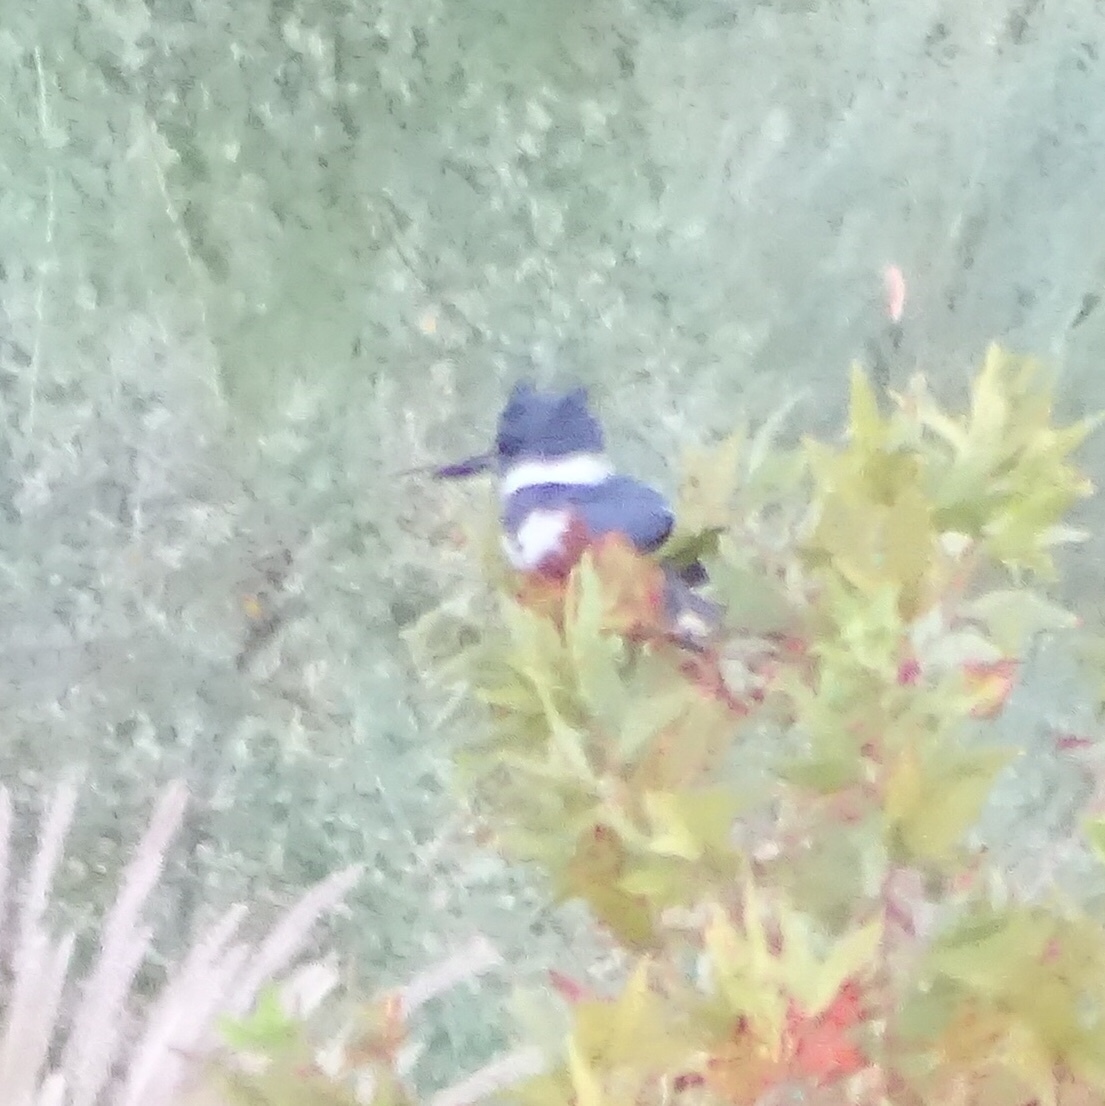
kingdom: Animalia
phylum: Chordata
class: Aves
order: Coraciiformes
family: Alcedinidae
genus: Megaceryle
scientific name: Megaceryle alcyon
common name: Belted kingfisher
